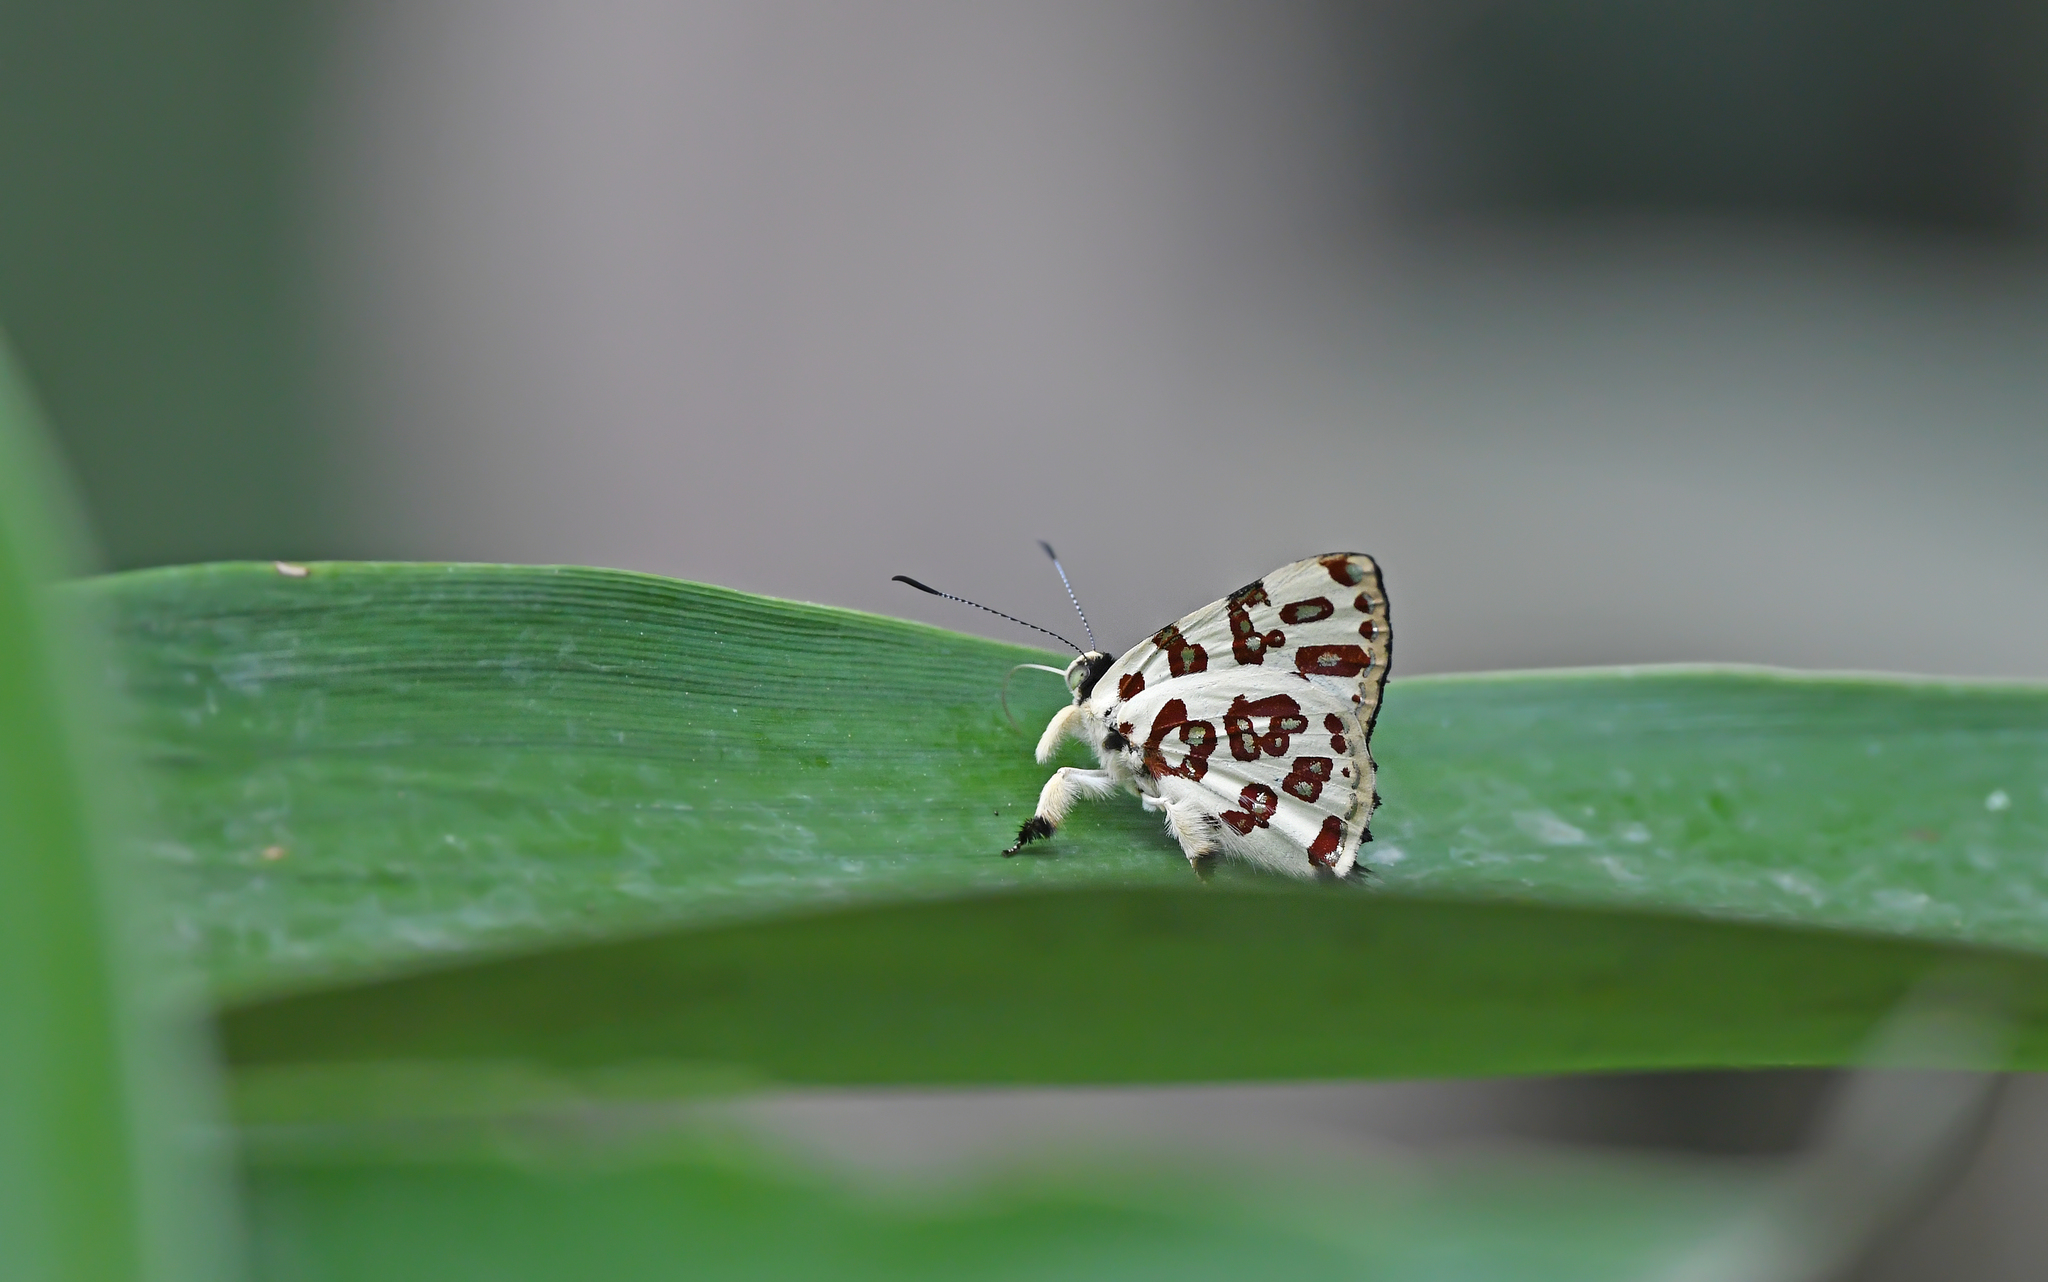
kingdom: Animalia
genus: Anteros
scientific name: Anteros bracteatus
